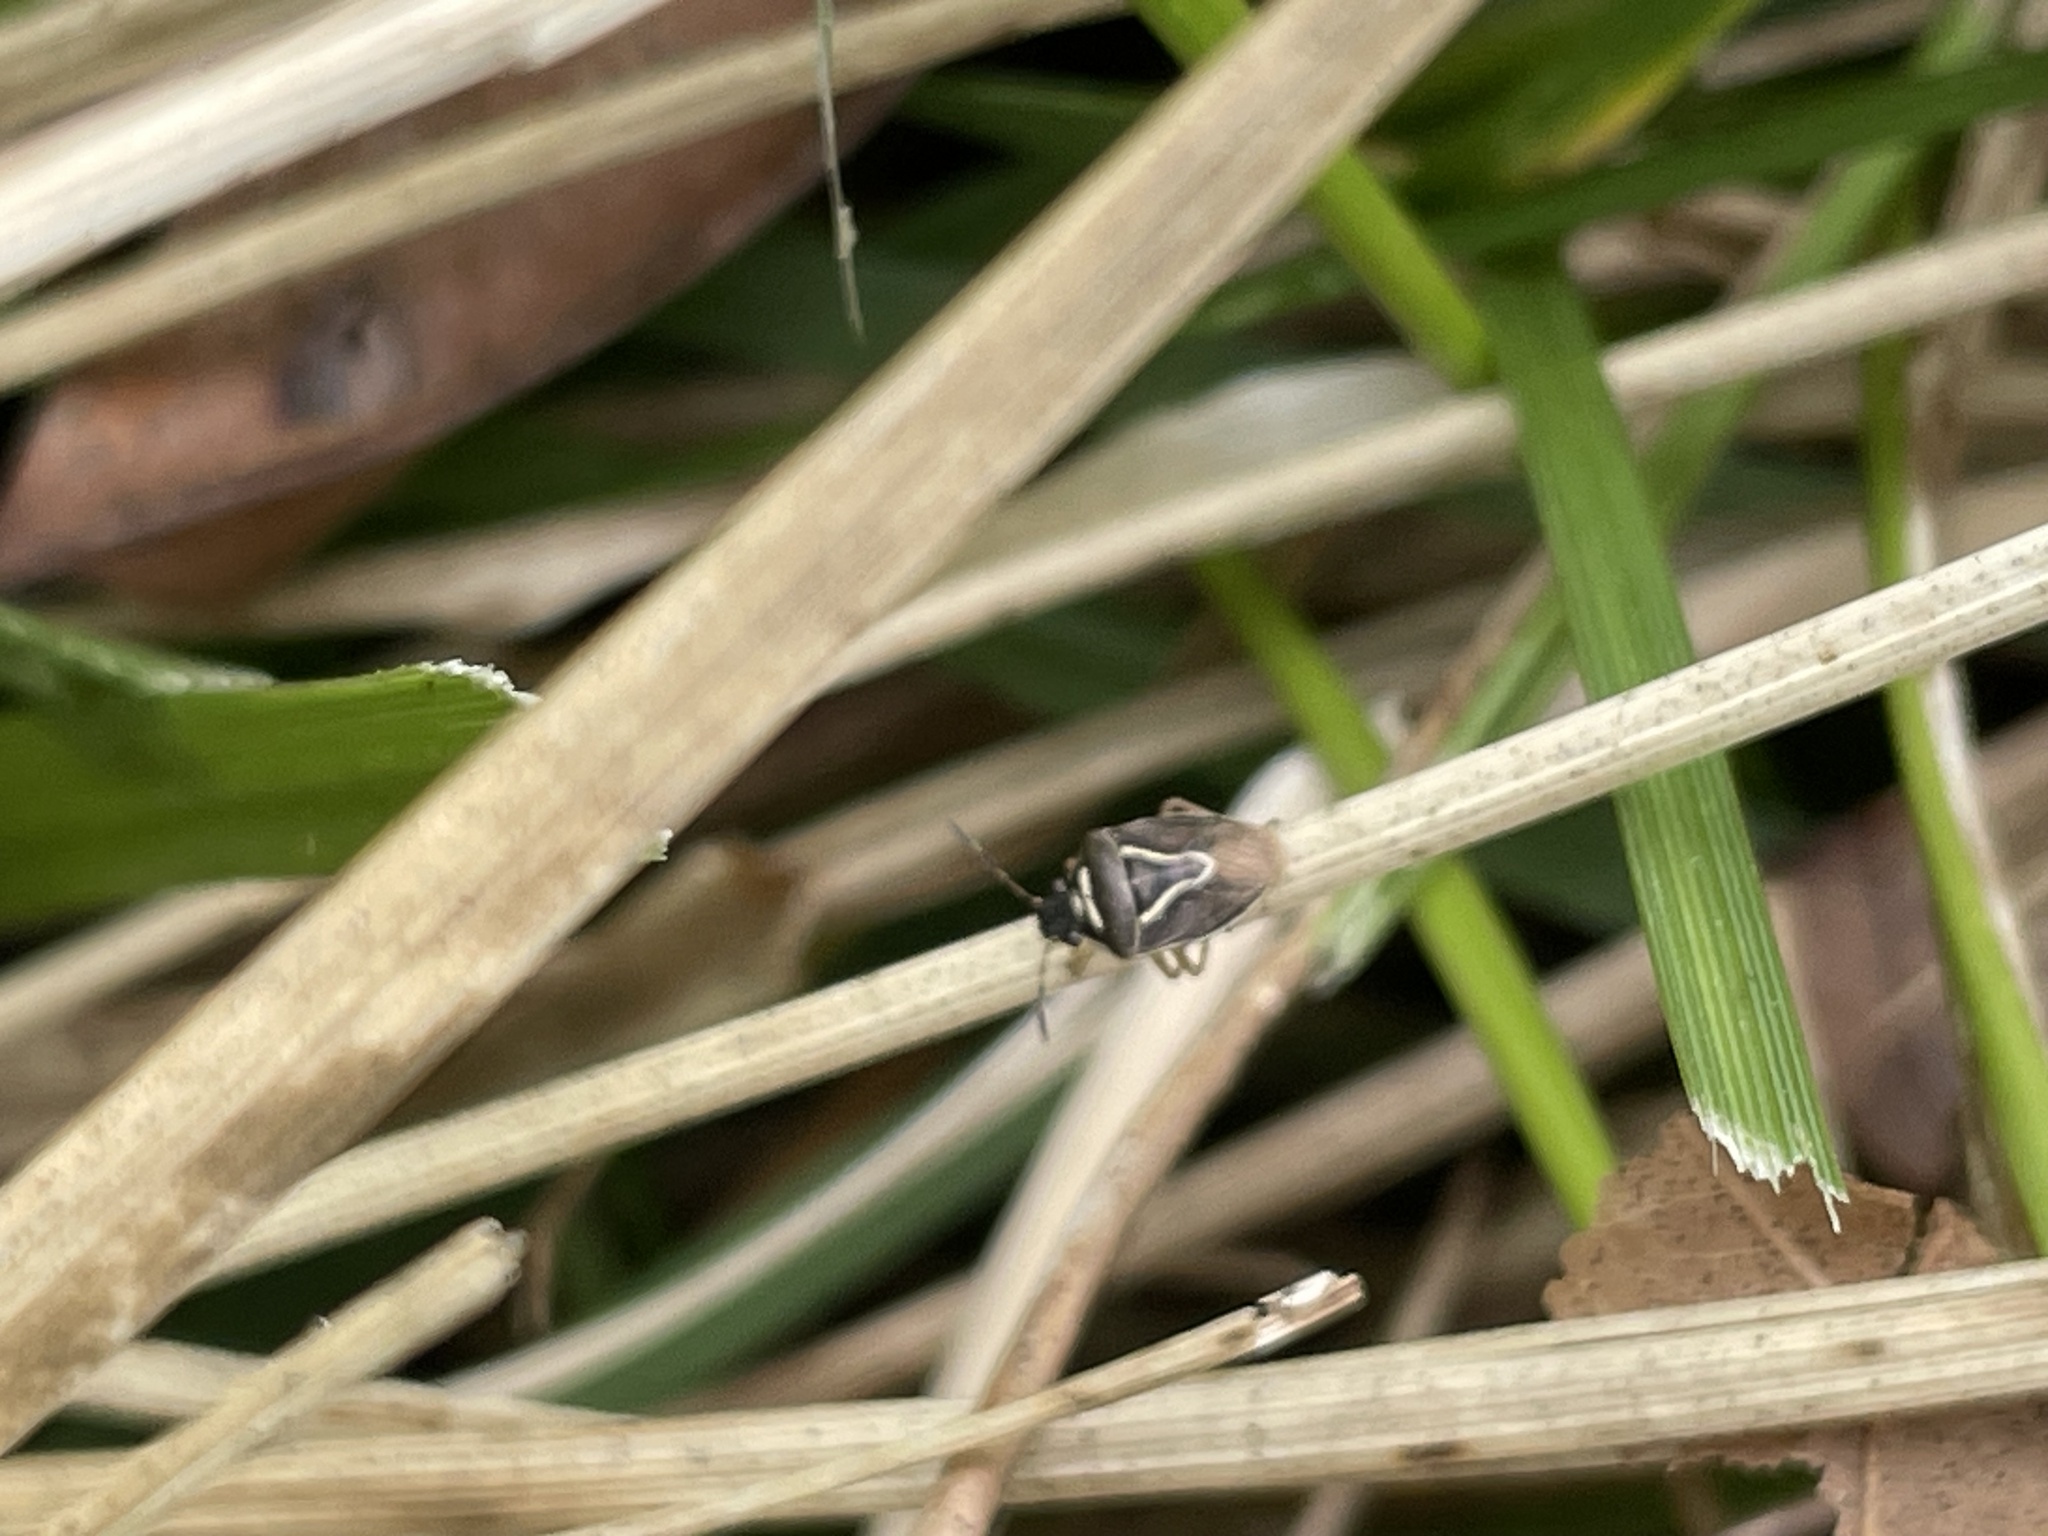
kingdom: Animalia
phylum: Arthropoda
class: Insecta
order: Hemiptera
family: Pentatomidae
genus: Mormidea
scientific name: Mormidea lugens
